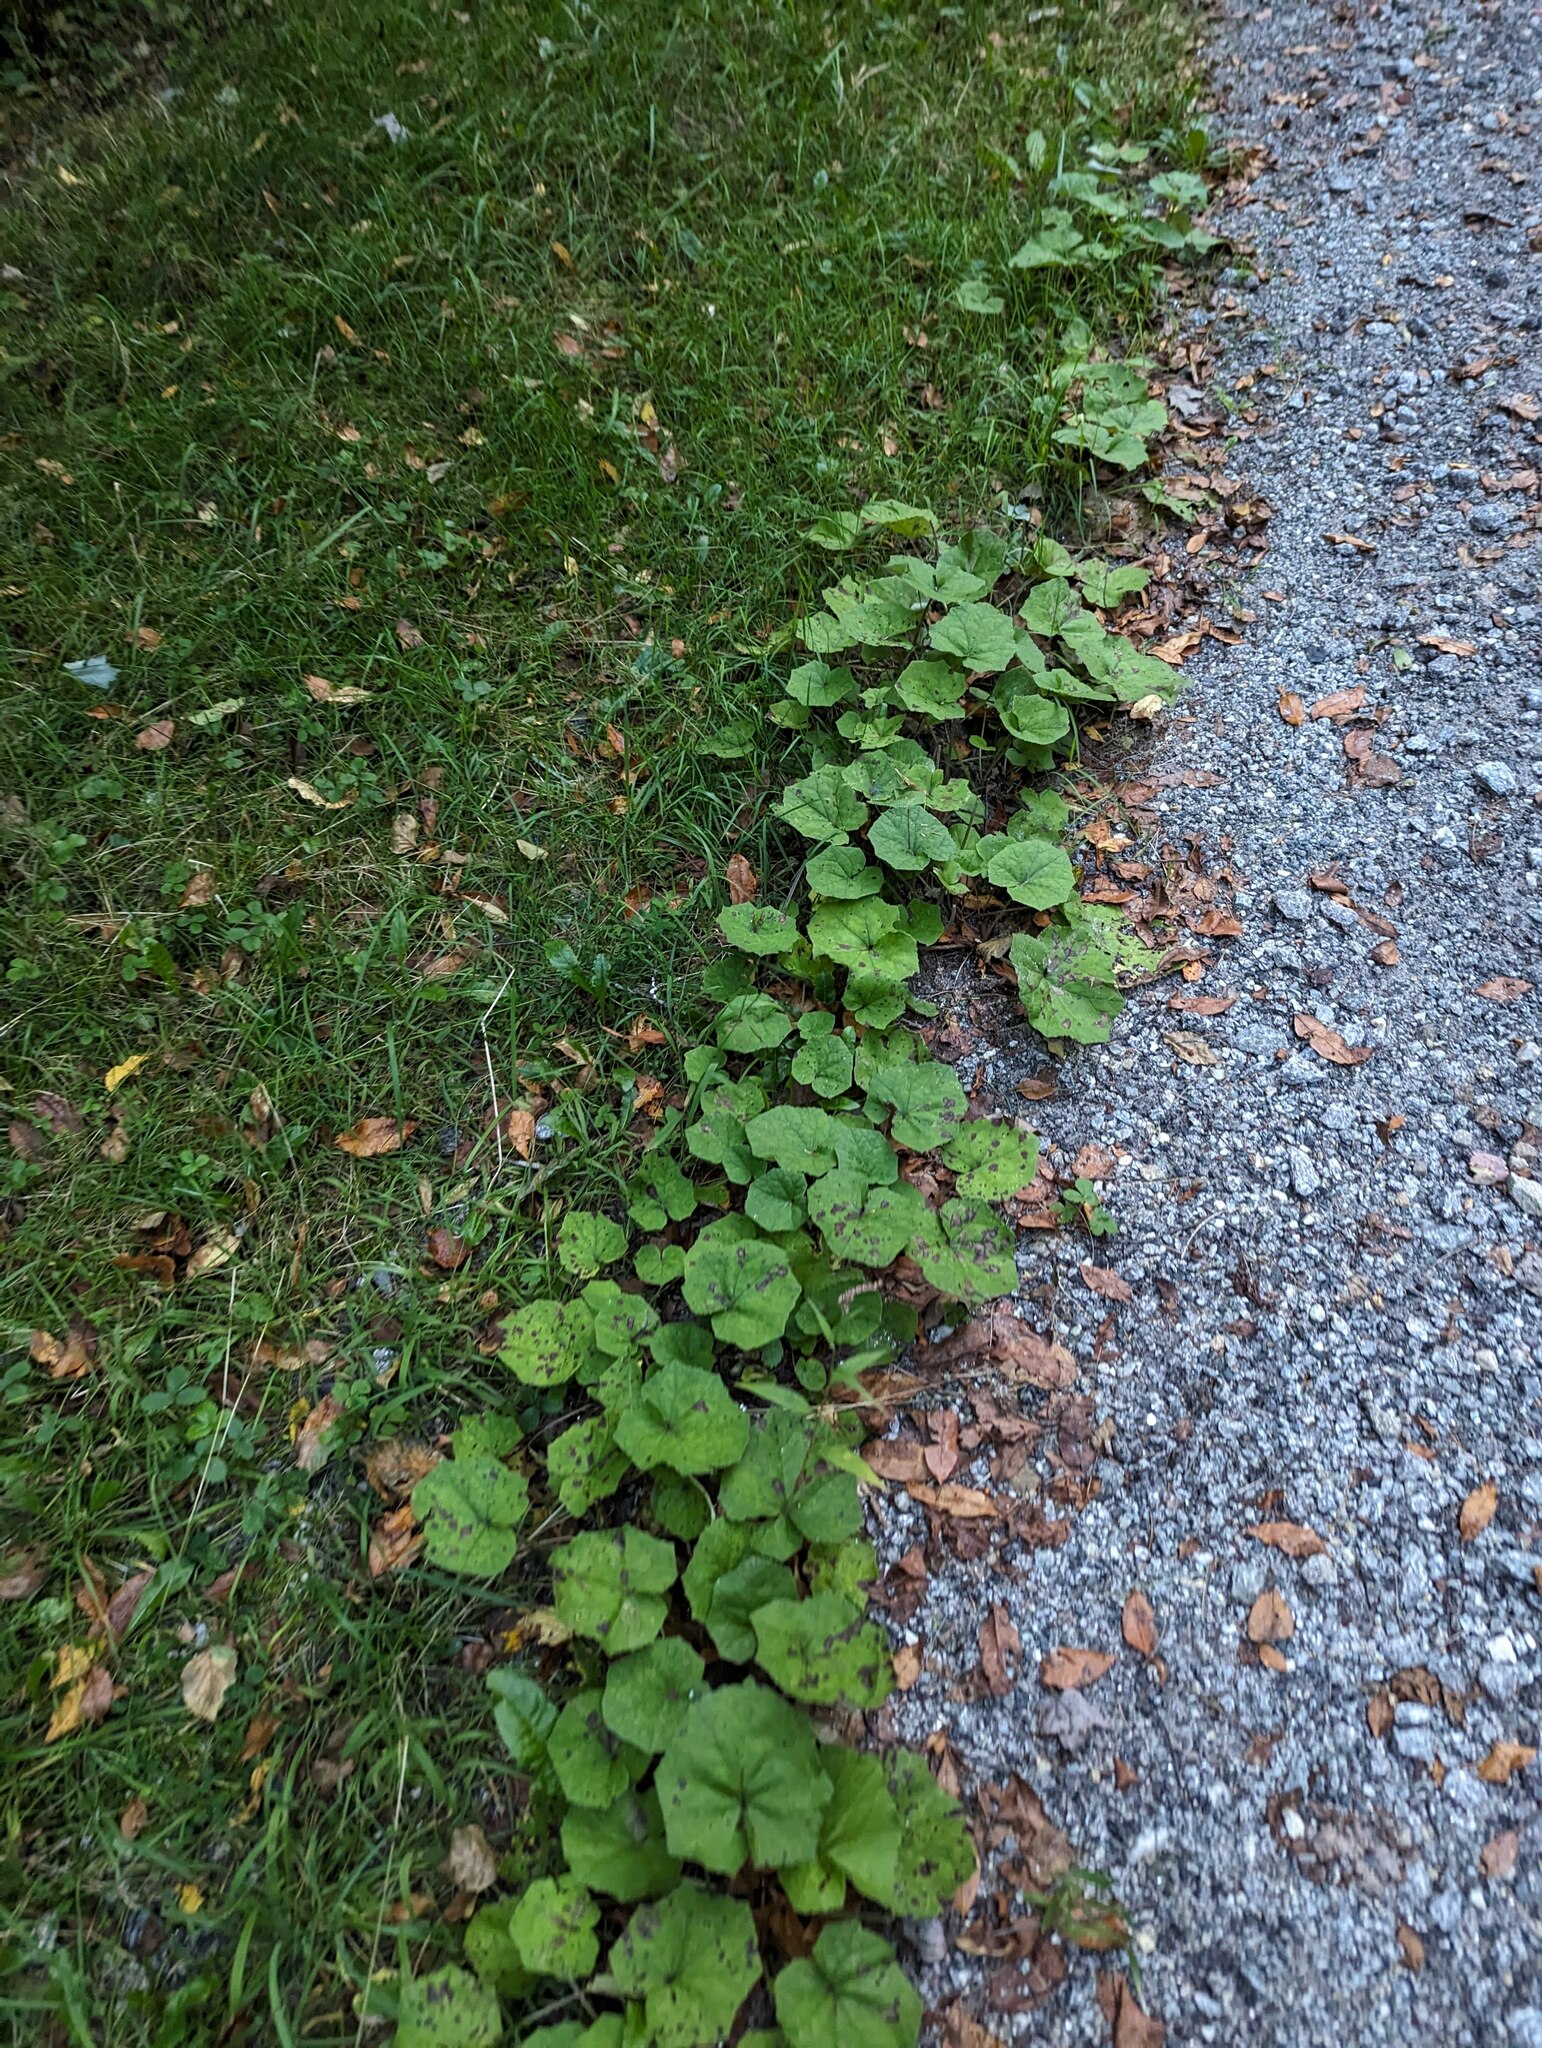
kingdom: Plantae
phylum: Tracheophyta
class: Magnoliopsida
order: Asterales
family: Asteraceae
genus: Tussilago
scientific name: Tussilago farfara
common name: Coltsfoot
